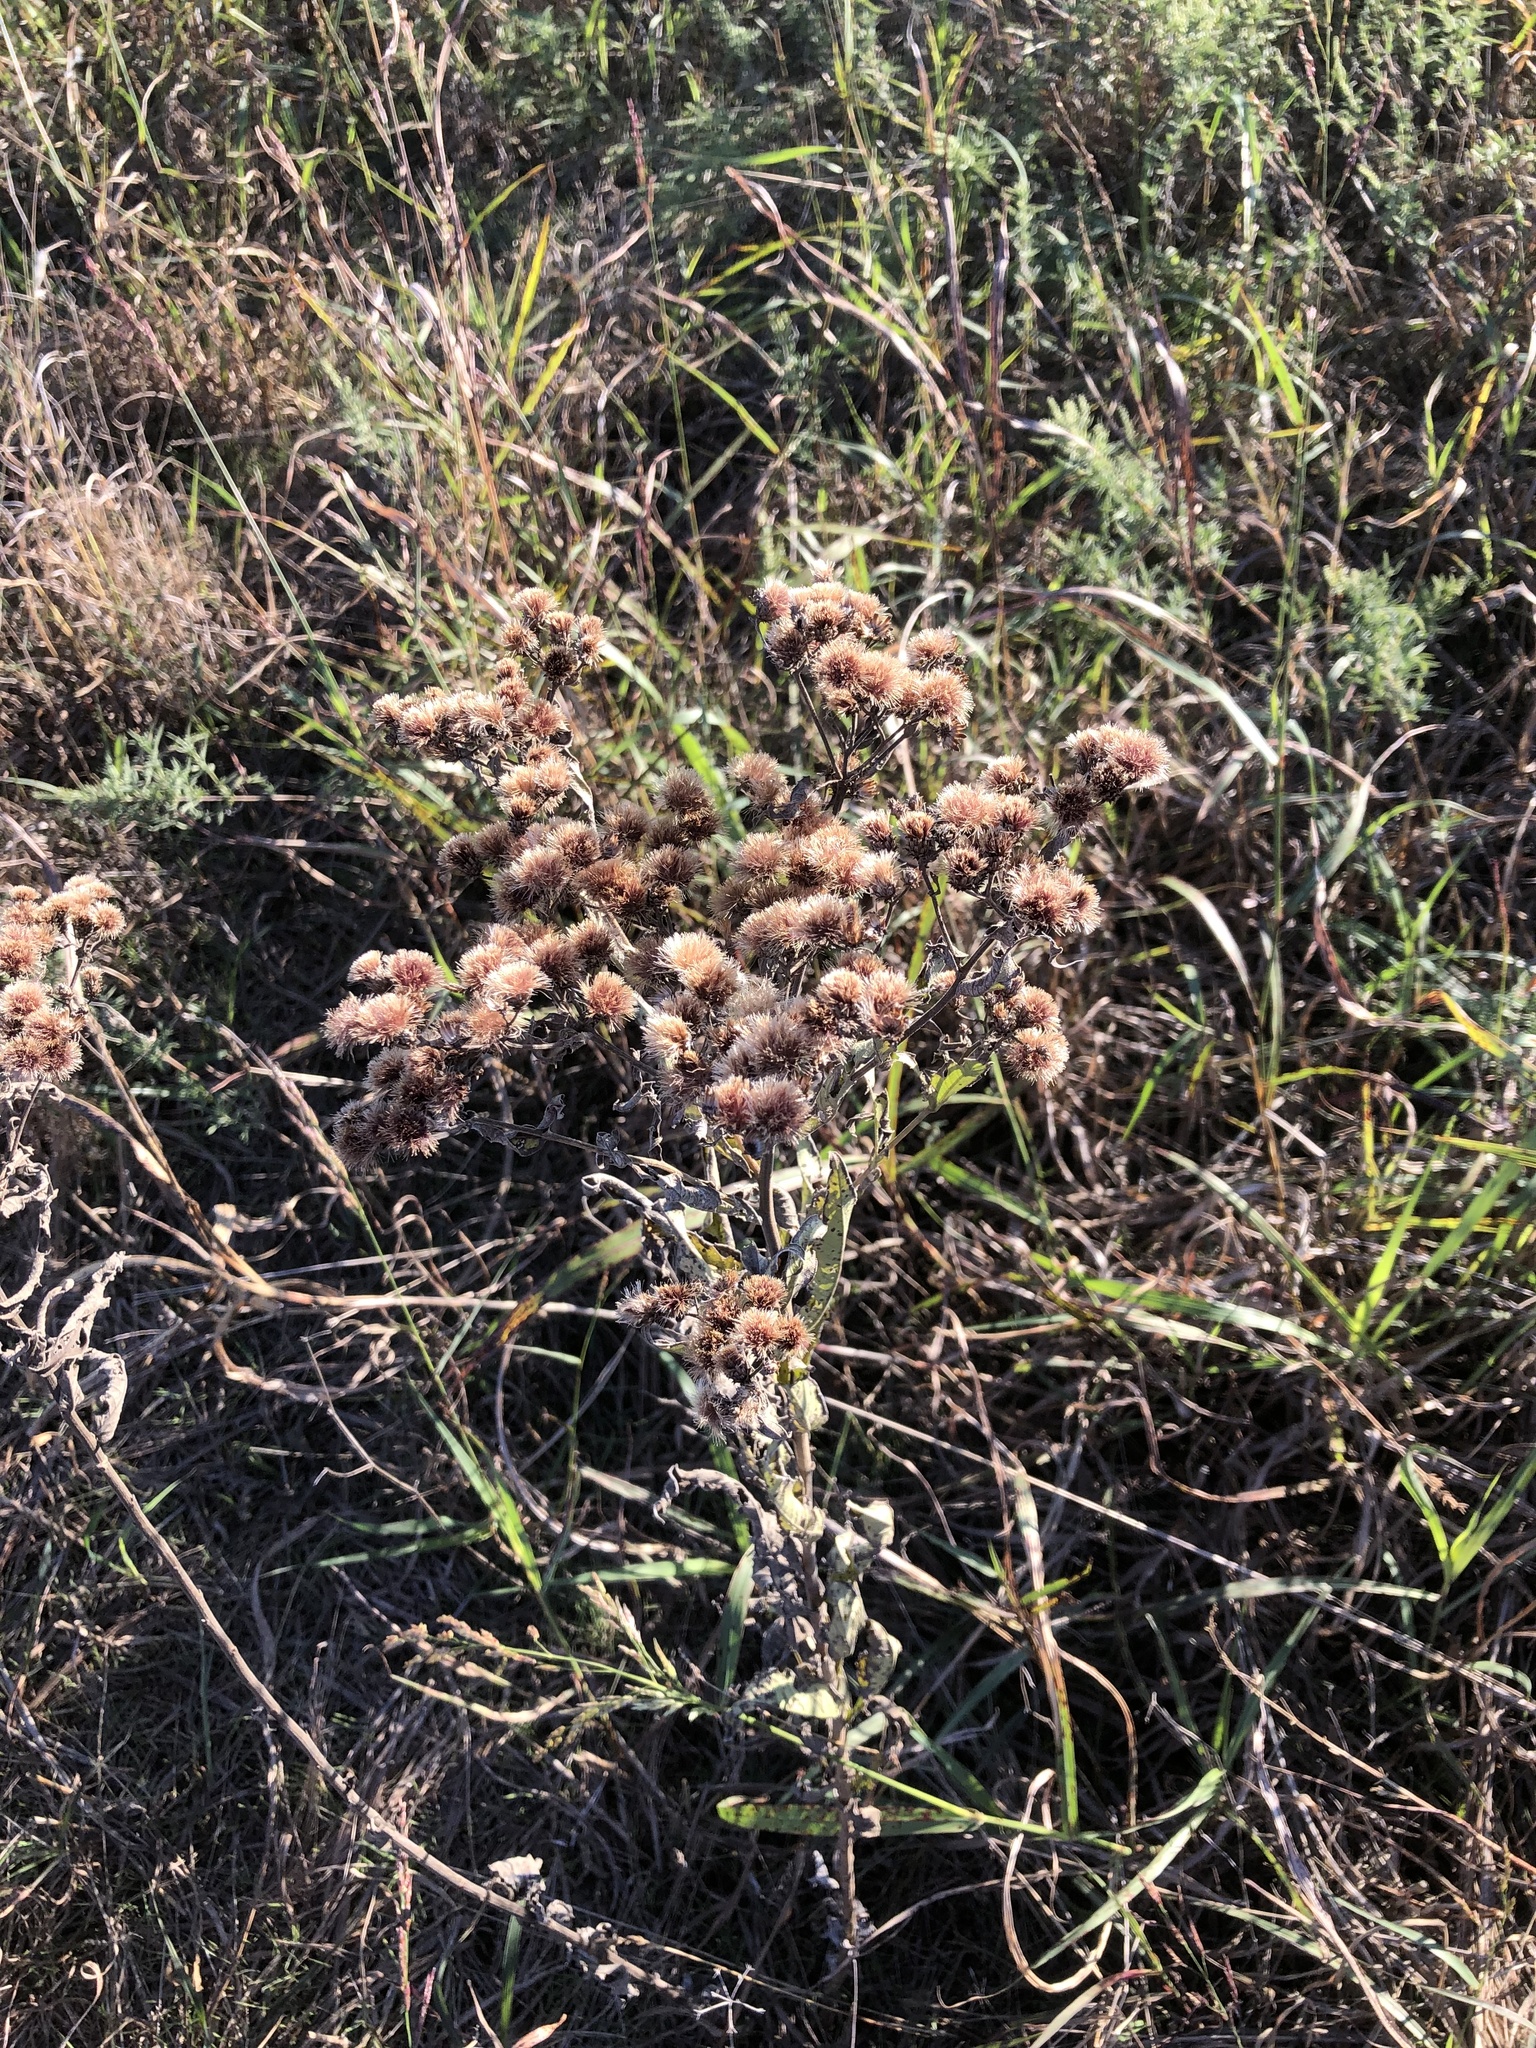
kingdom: Plantae
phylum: Tracheophyta
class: Magnoliopsida
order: Asterales
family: Asteraceae
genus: Vernonia
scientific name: Vernonia baldwinii
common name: Western ironweed
